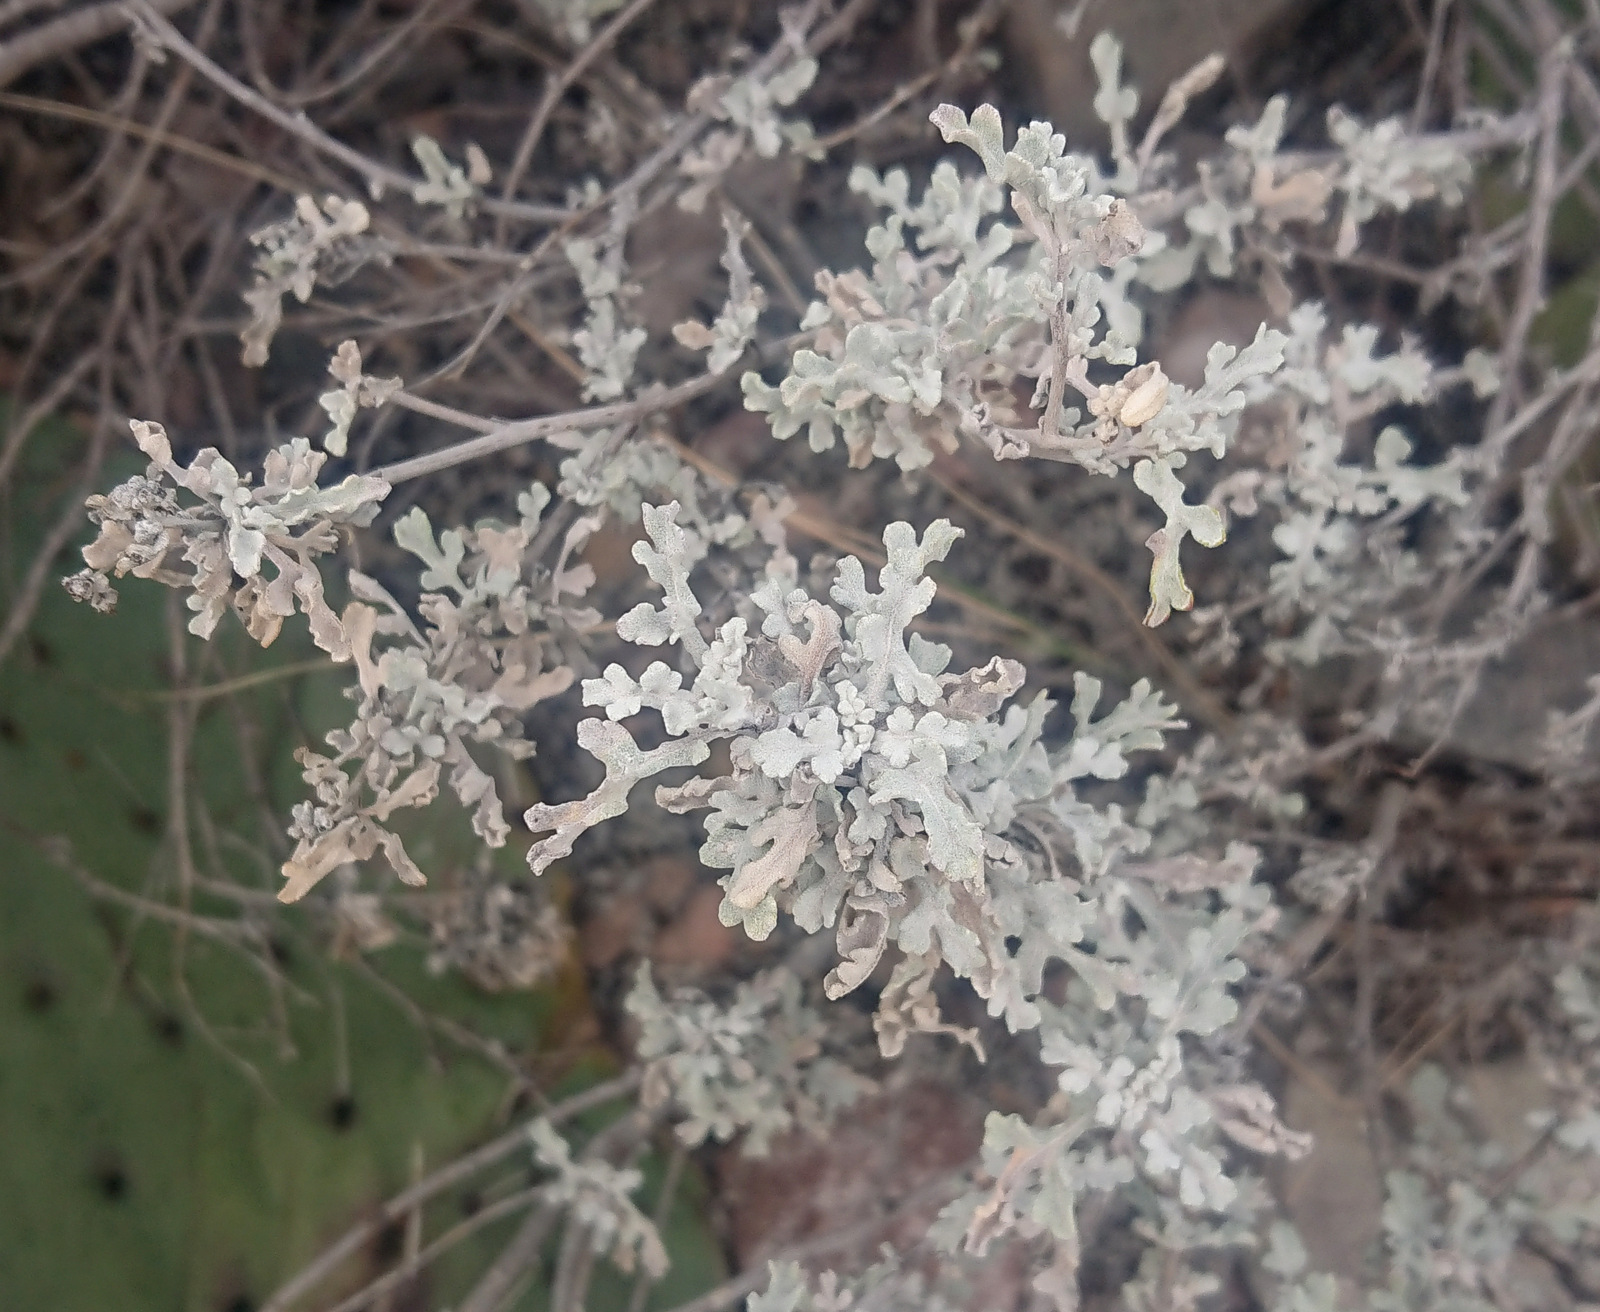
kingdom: Plantae
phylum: Tracheophyta
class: Magnoliopsida
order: Asterales
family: Asteraceae
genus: Parthenium
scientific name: Parthenium incanum
